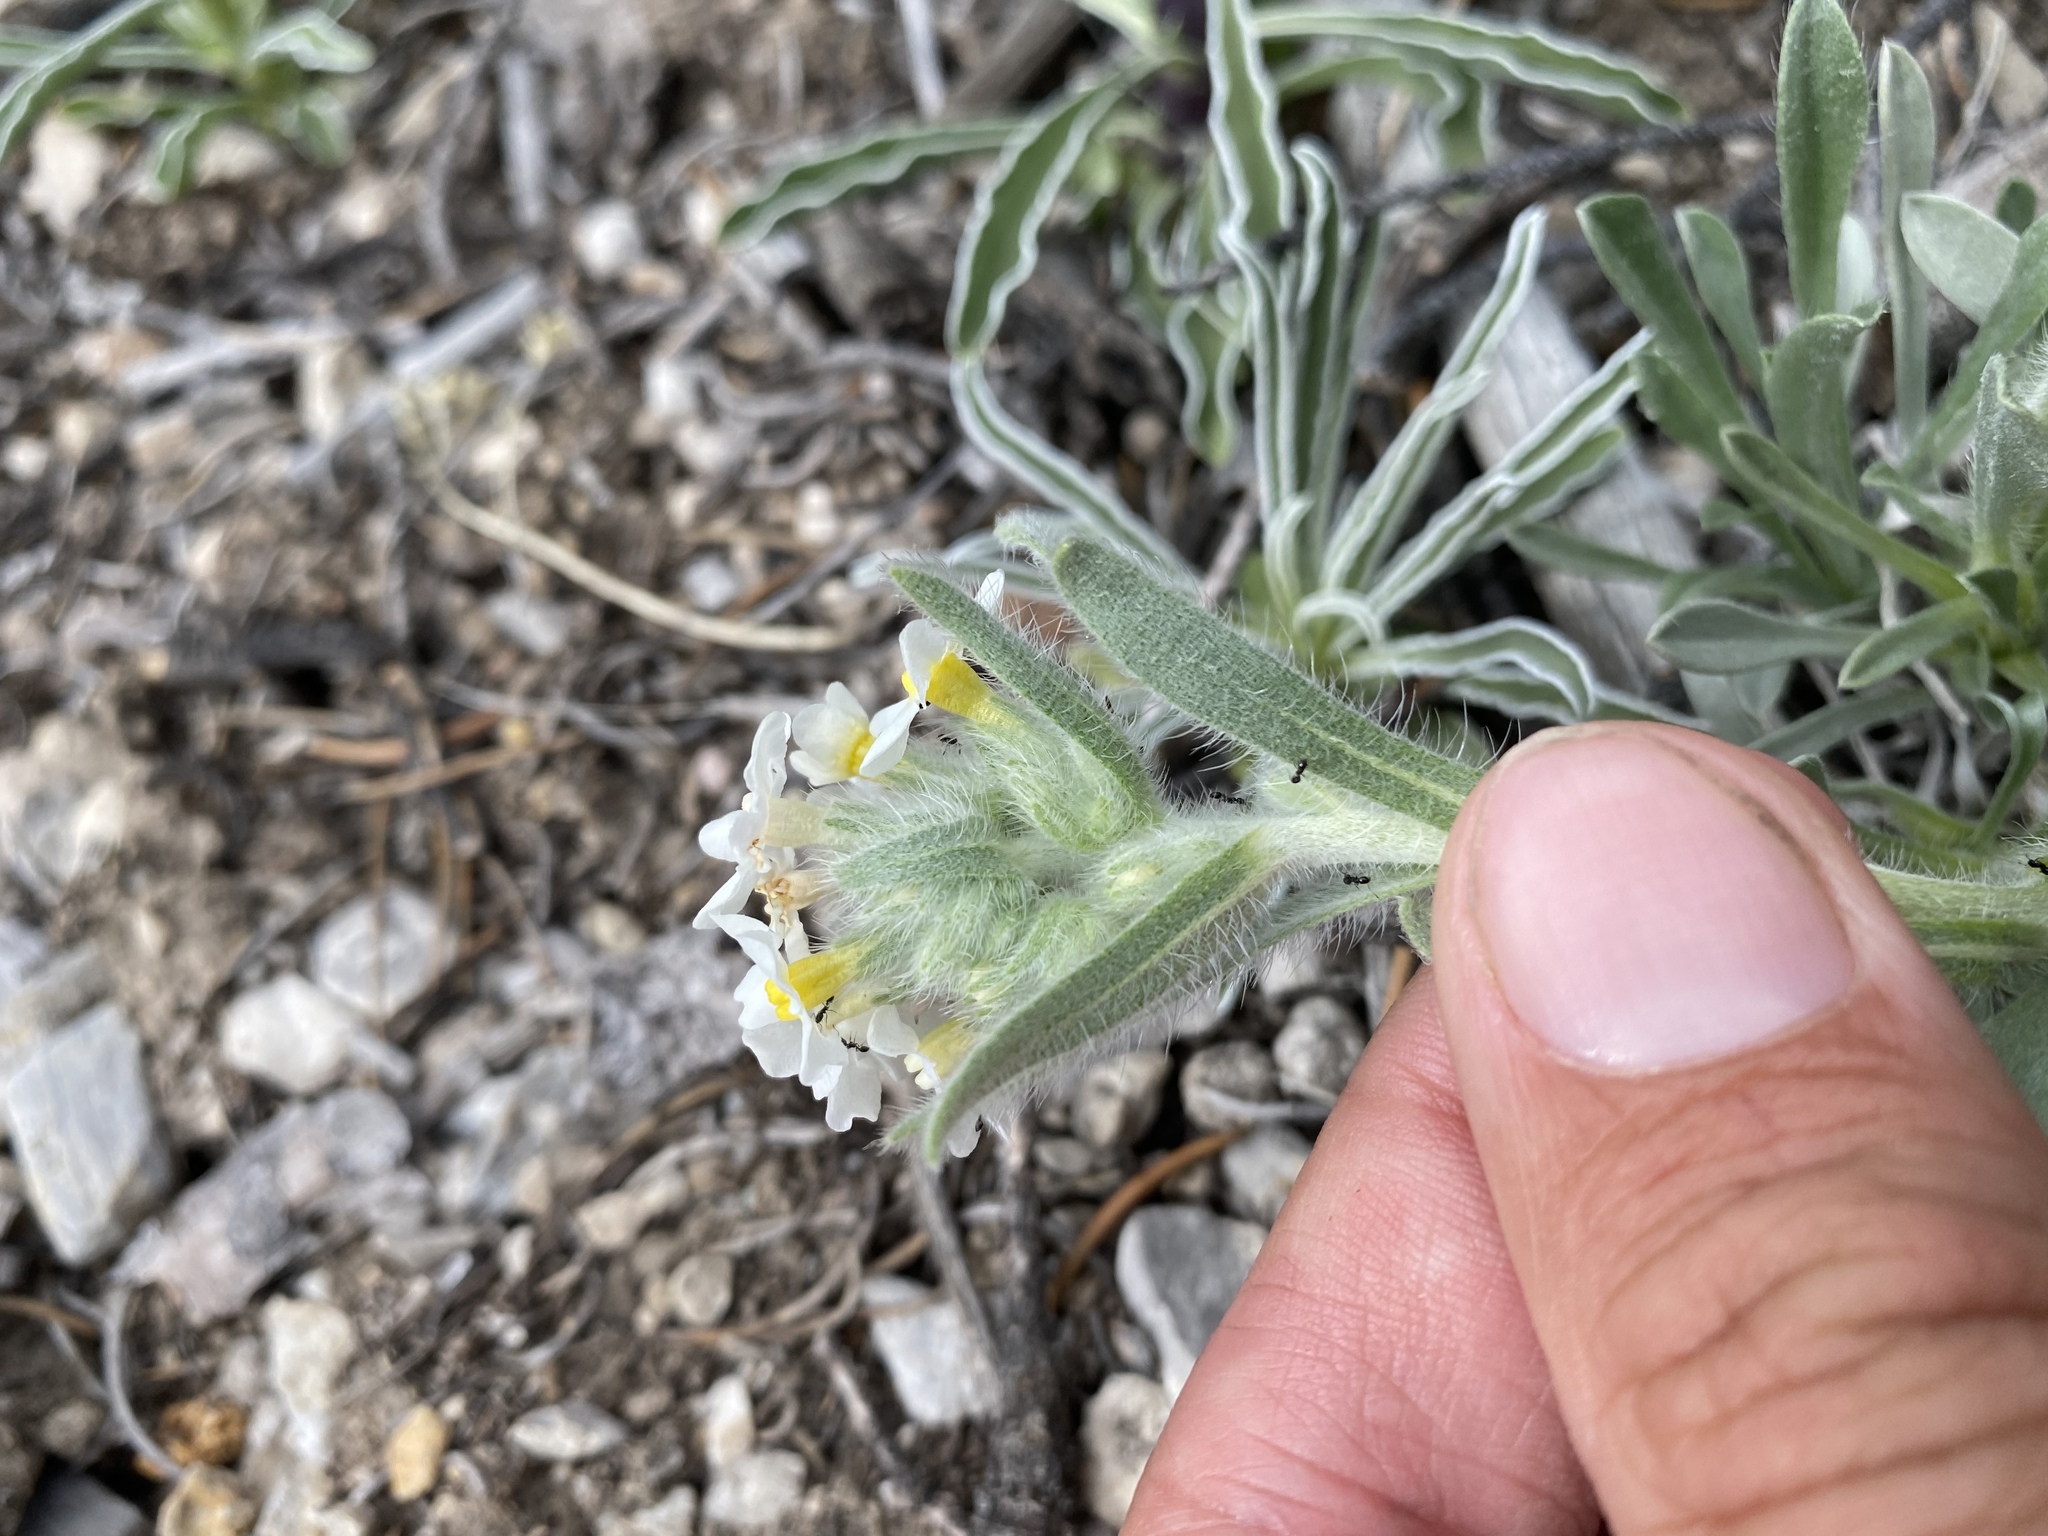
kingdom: Plantae
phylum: Tracheophyta
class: Magnoliopsida
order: Boraginales
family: Boraginaceae
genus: Oreocarya
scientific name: Oreocarya flavoculata
